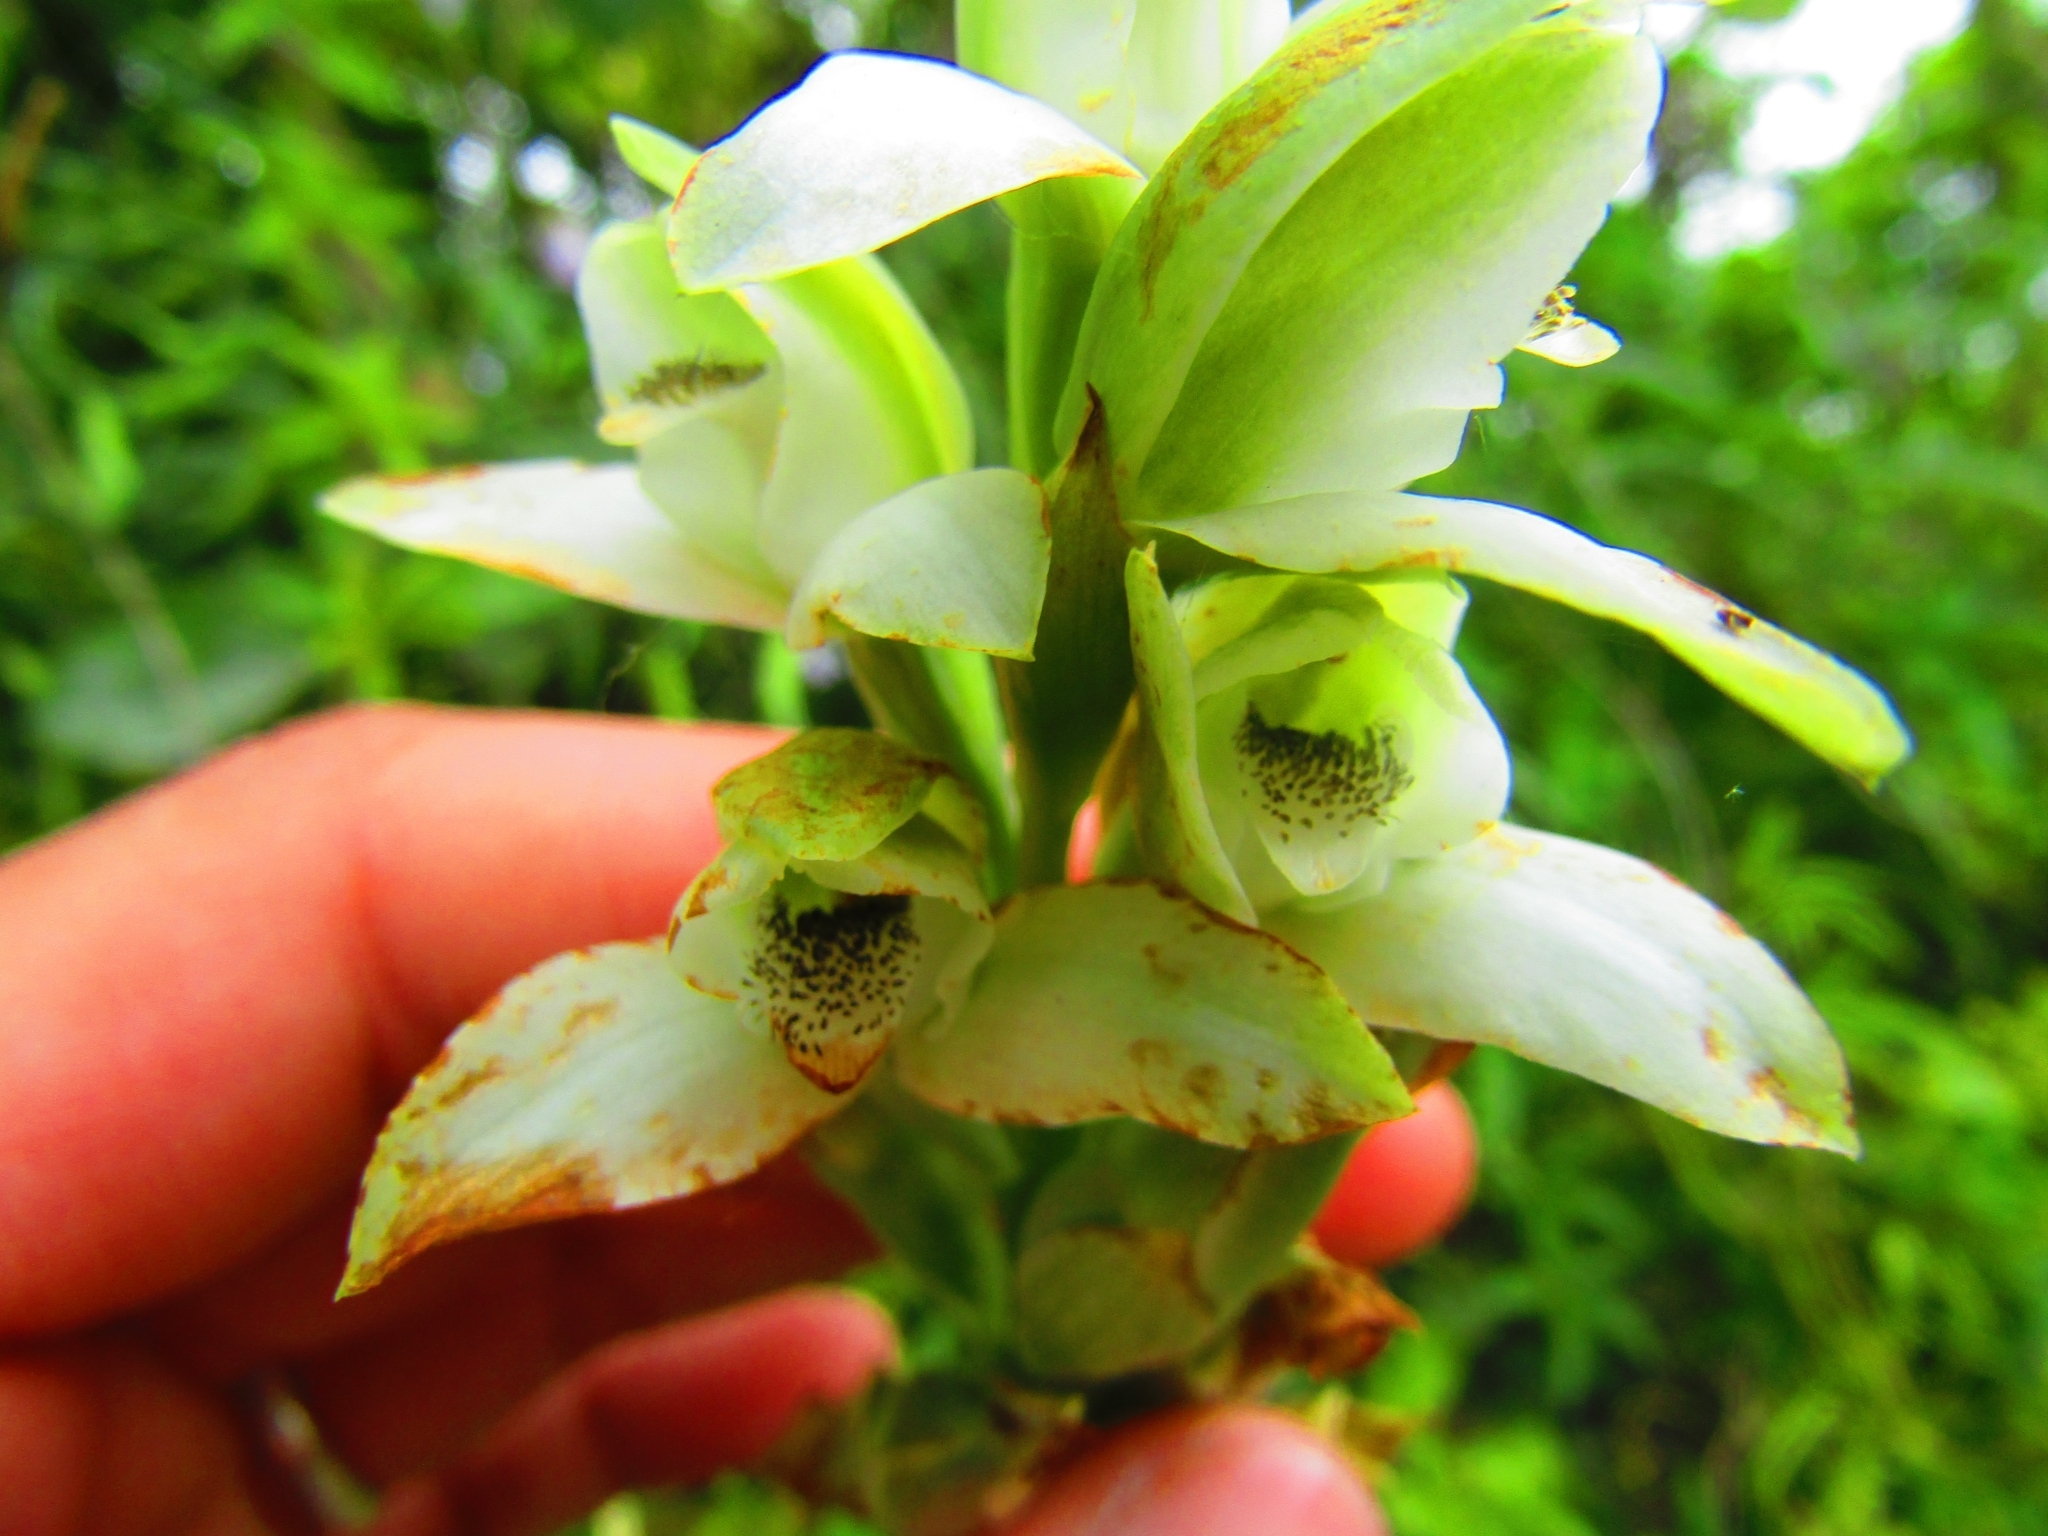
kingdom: Plantae
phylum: Tracheophyta
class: Liliopsida
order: Asparagales
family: Orchidaceae
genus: Chloraea
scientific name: Chloraea membranacea
